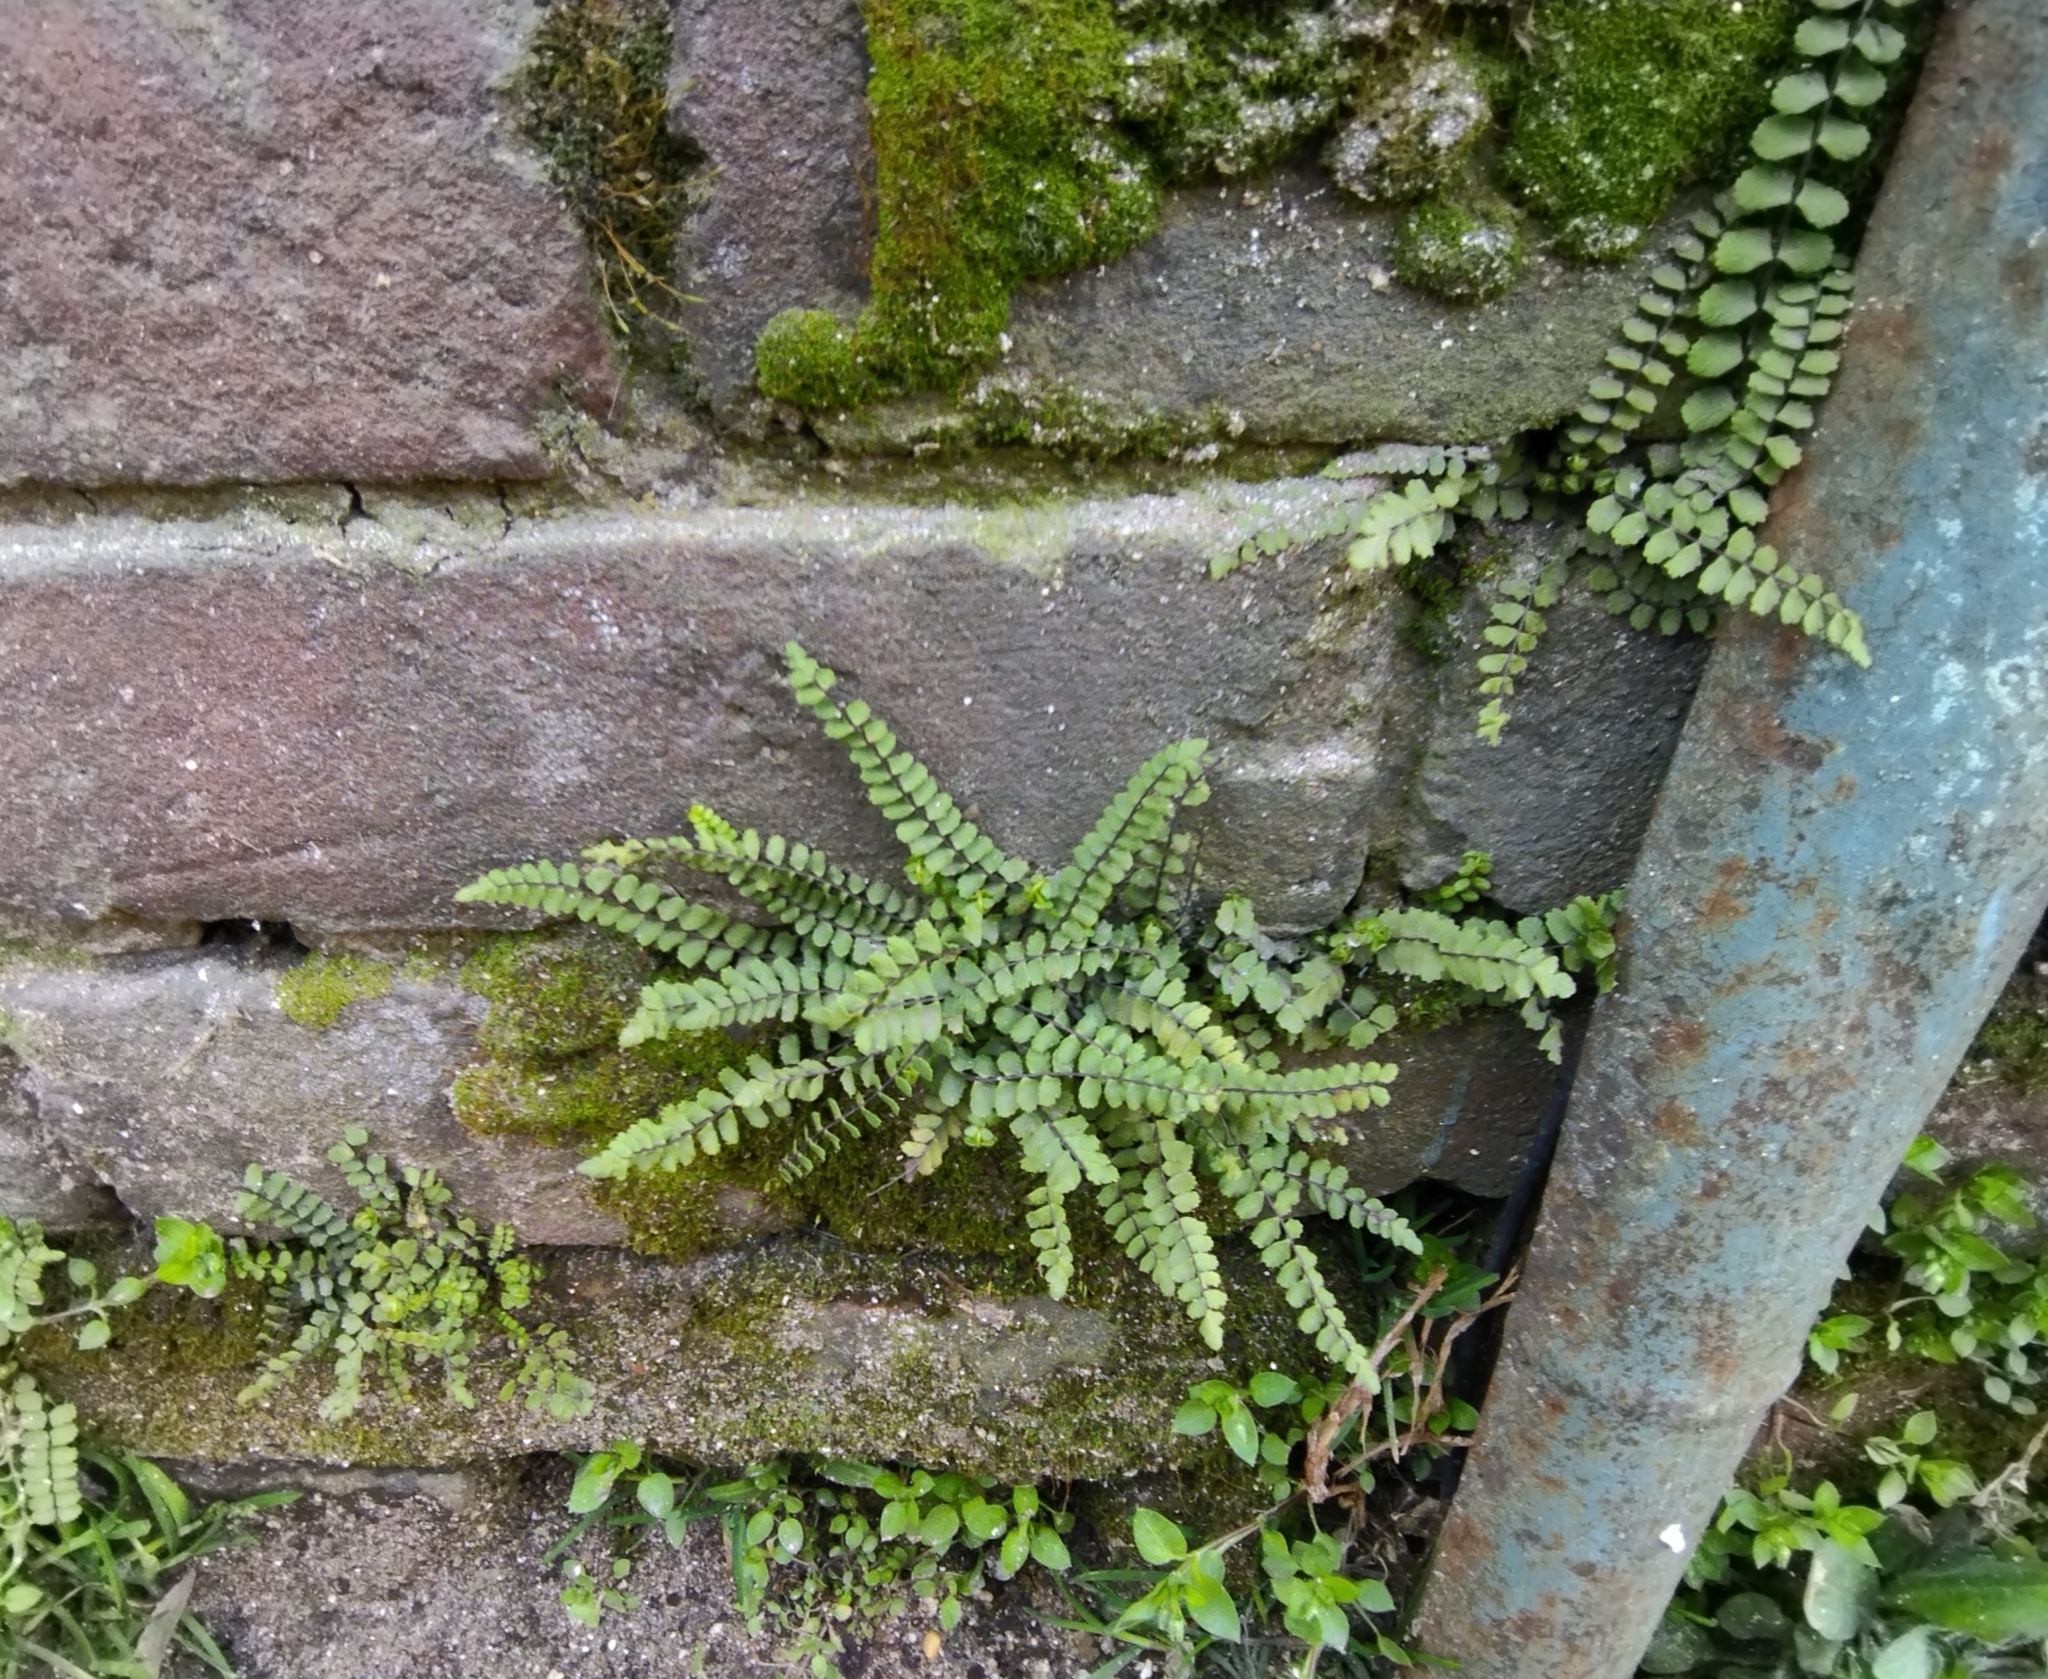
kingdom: Plantae
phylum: Tracheophyta
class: Polypodiopsida
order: Polypodiales
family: Aspleniaceae
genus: Asplenium
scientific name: Asplenium trichomanes
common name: Maidenhair spleenwort
